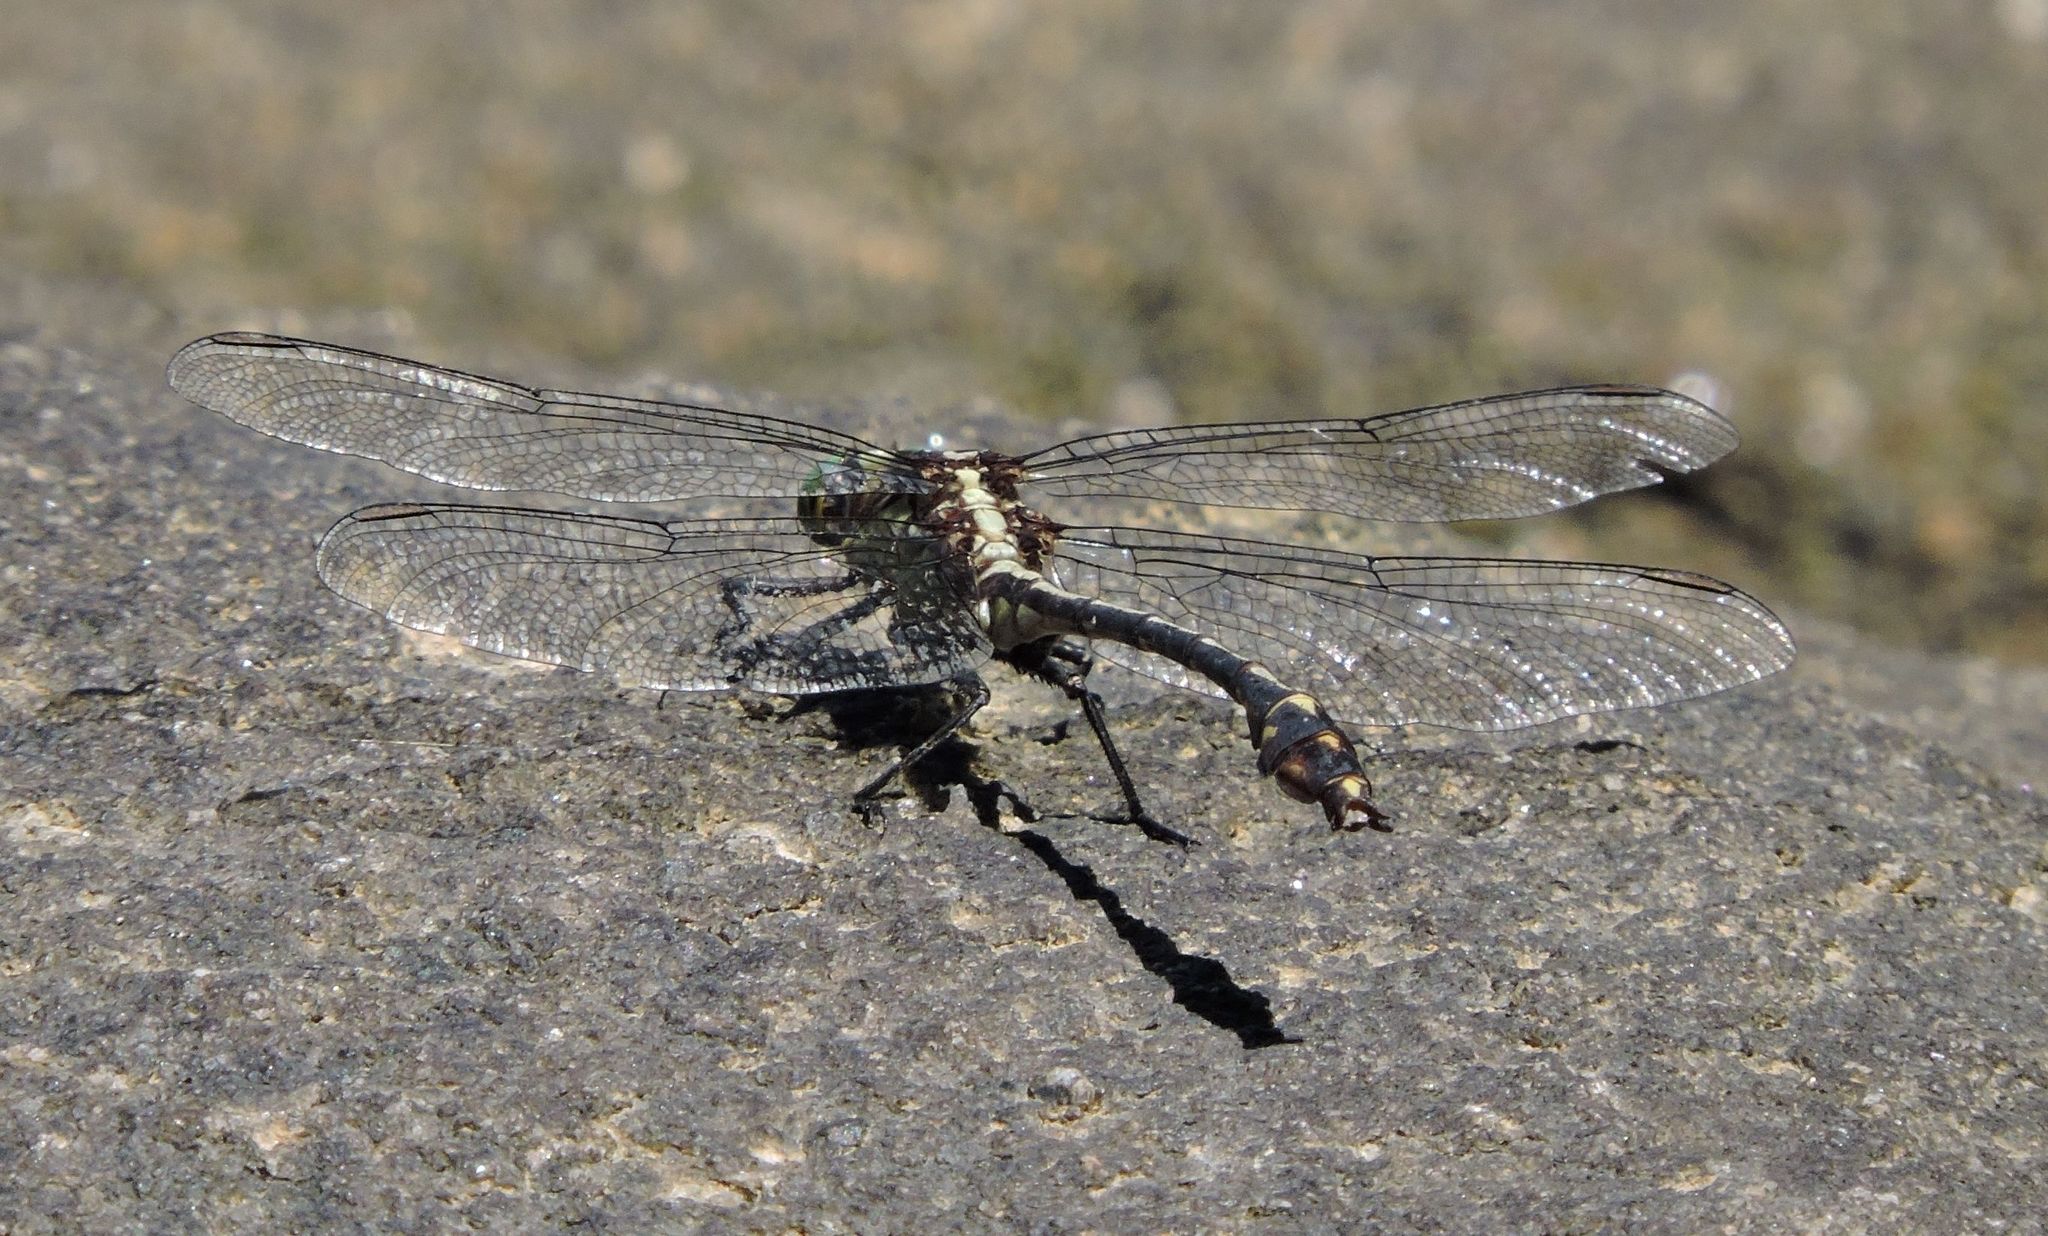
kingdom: Animalia
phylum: Arthropoda
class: Insecta
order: Odonata
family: Gomphidae
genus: Dromogomphus
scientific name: Dromogomphus spinosus
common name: Black-shouldered spinyleg
